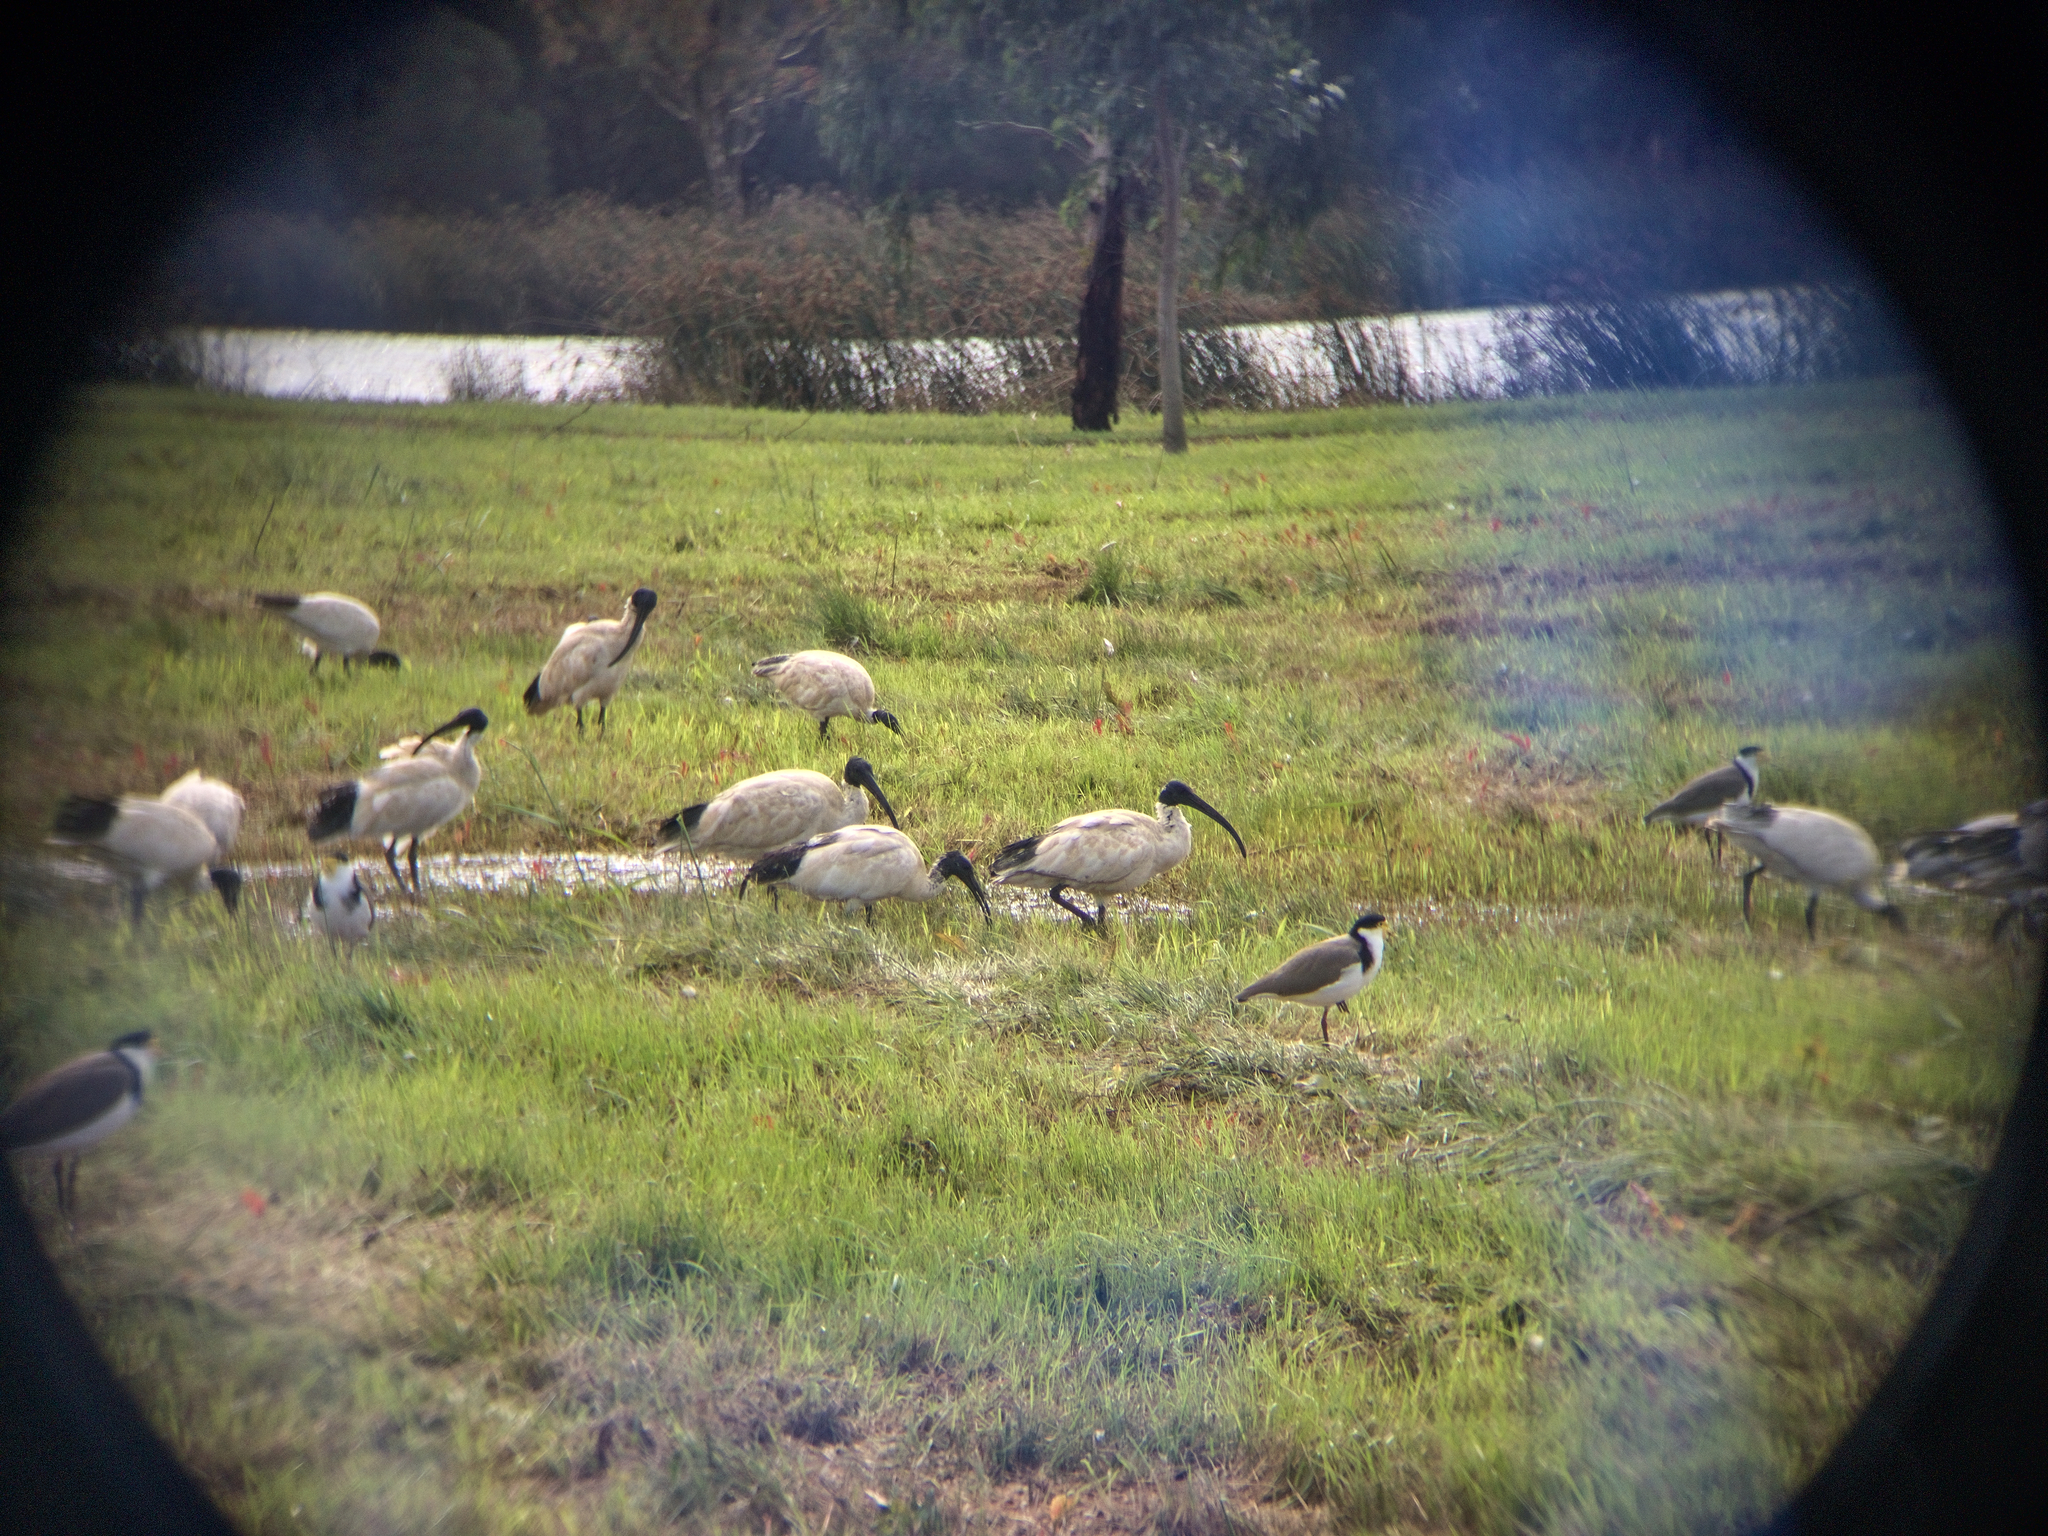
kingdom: Animalia
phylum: Chordata
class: Aves
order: Pelecaniformes
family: Threskiornithidae
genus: Threskiornis
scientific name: Threskiornis molucca
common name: Australian white ibis
